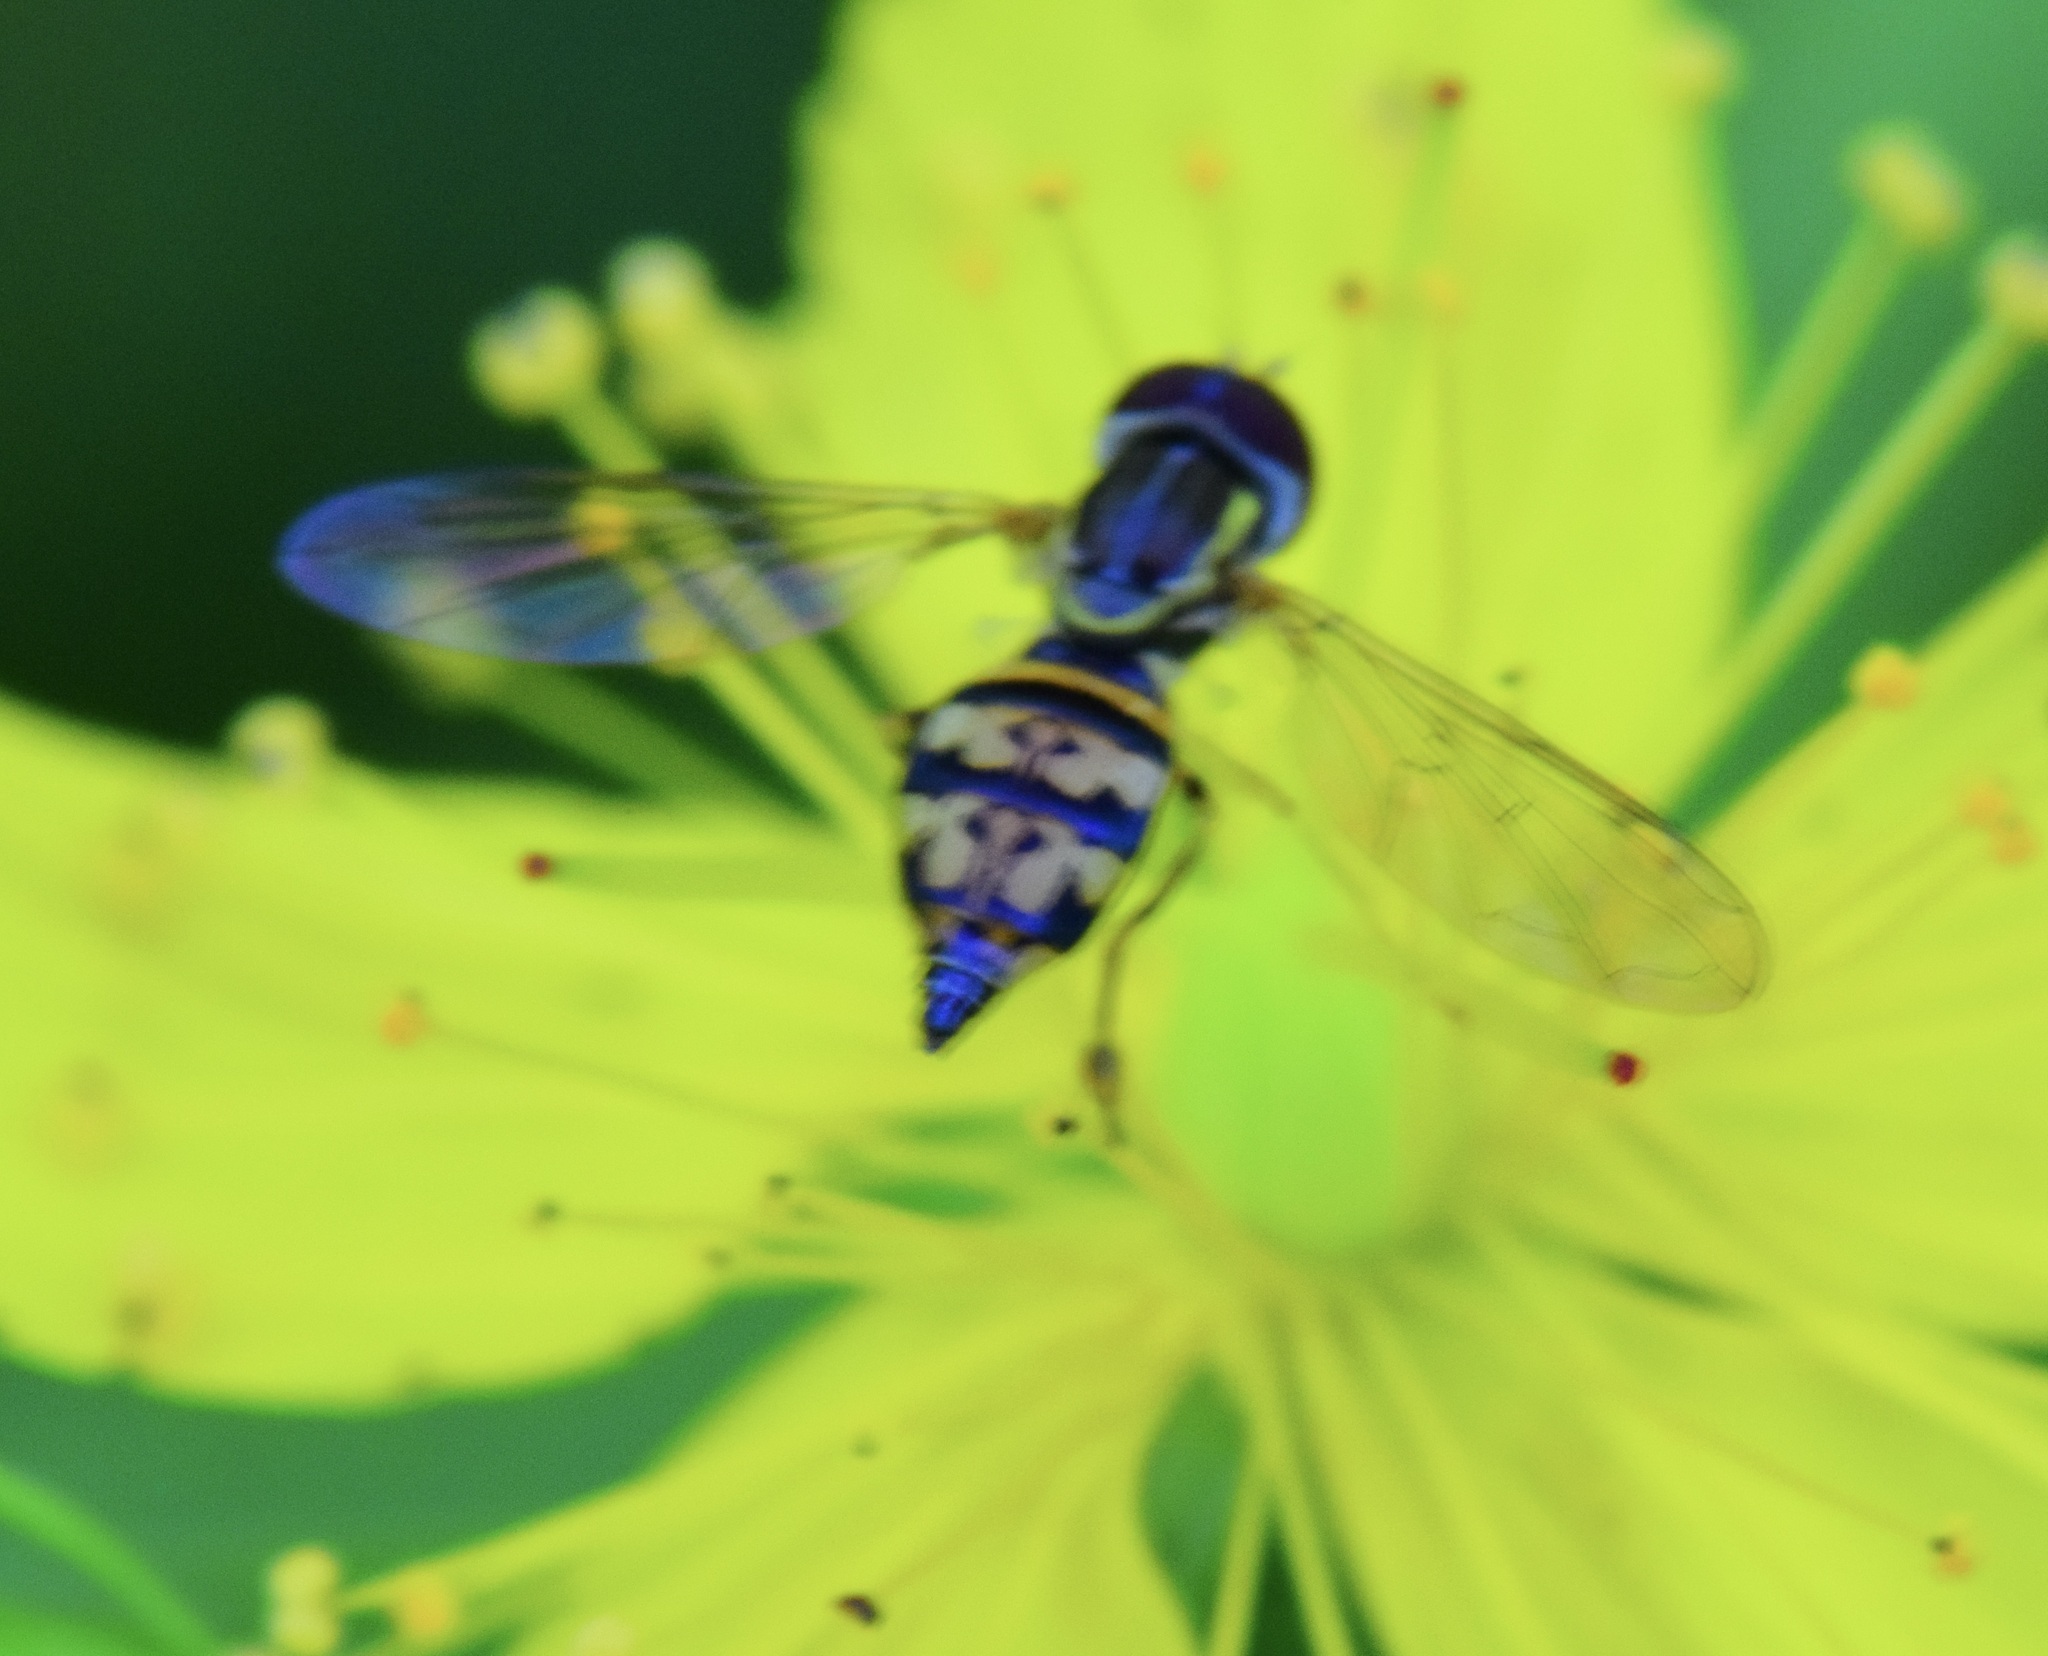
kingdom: Animalia
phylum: Arthropoda
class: Insecta
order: Diptera
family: Syrphidae
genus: Toxomerus
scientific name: Toxomerus geminatus
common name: Eastern calligrapher
